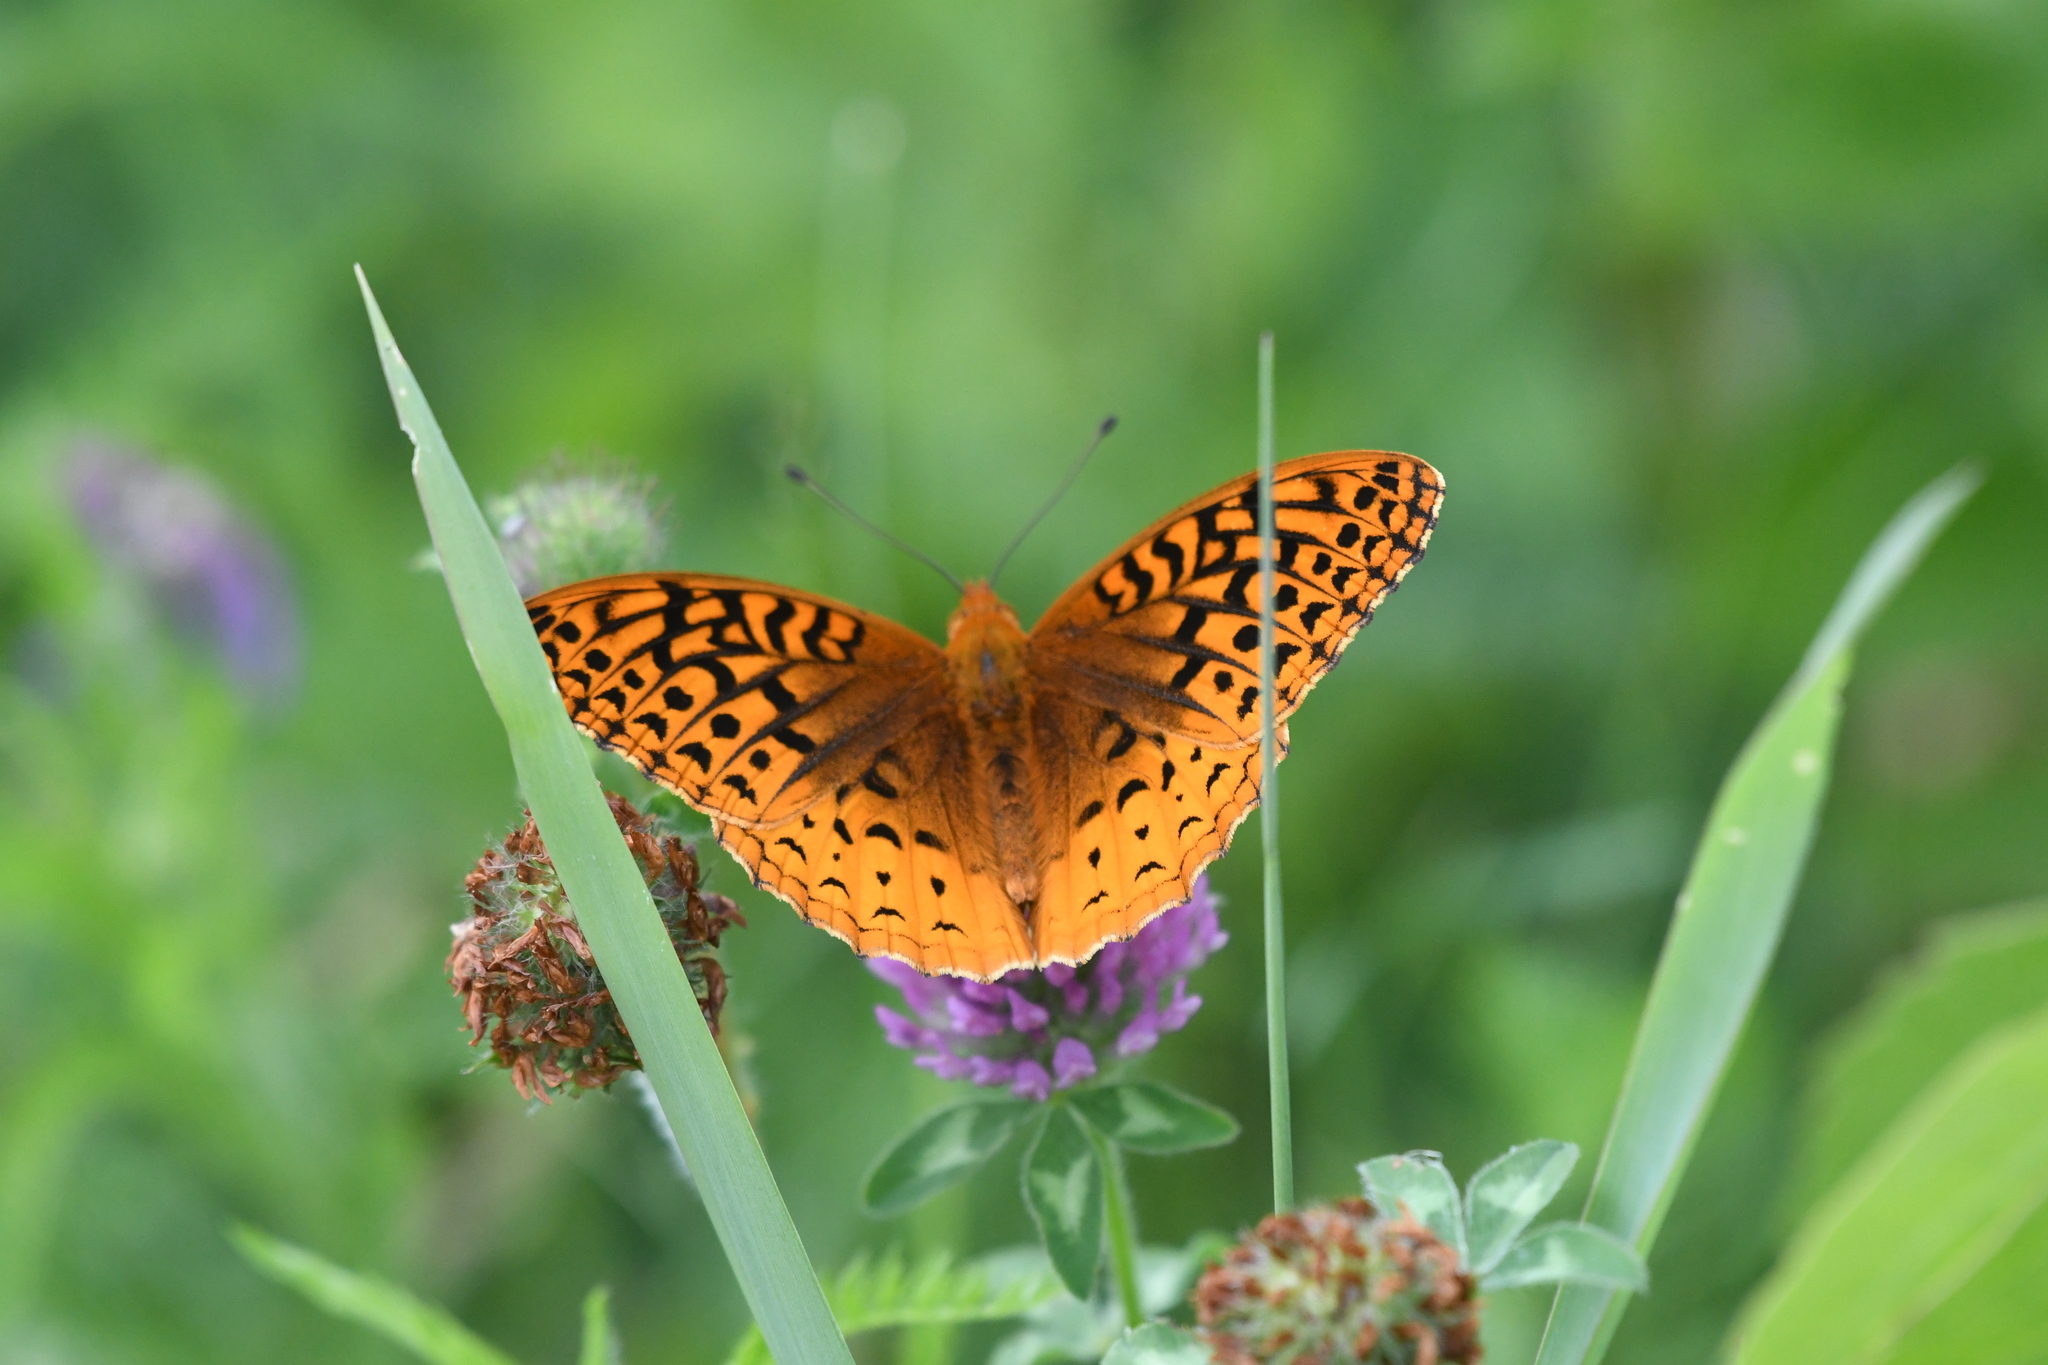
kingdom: Animalia
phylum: Arthropoda
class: Insecta
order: Lepidoptera
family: Nymphalidae
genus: Speyeria
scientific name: Speyeria cybele
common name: Great spangled fritillary
